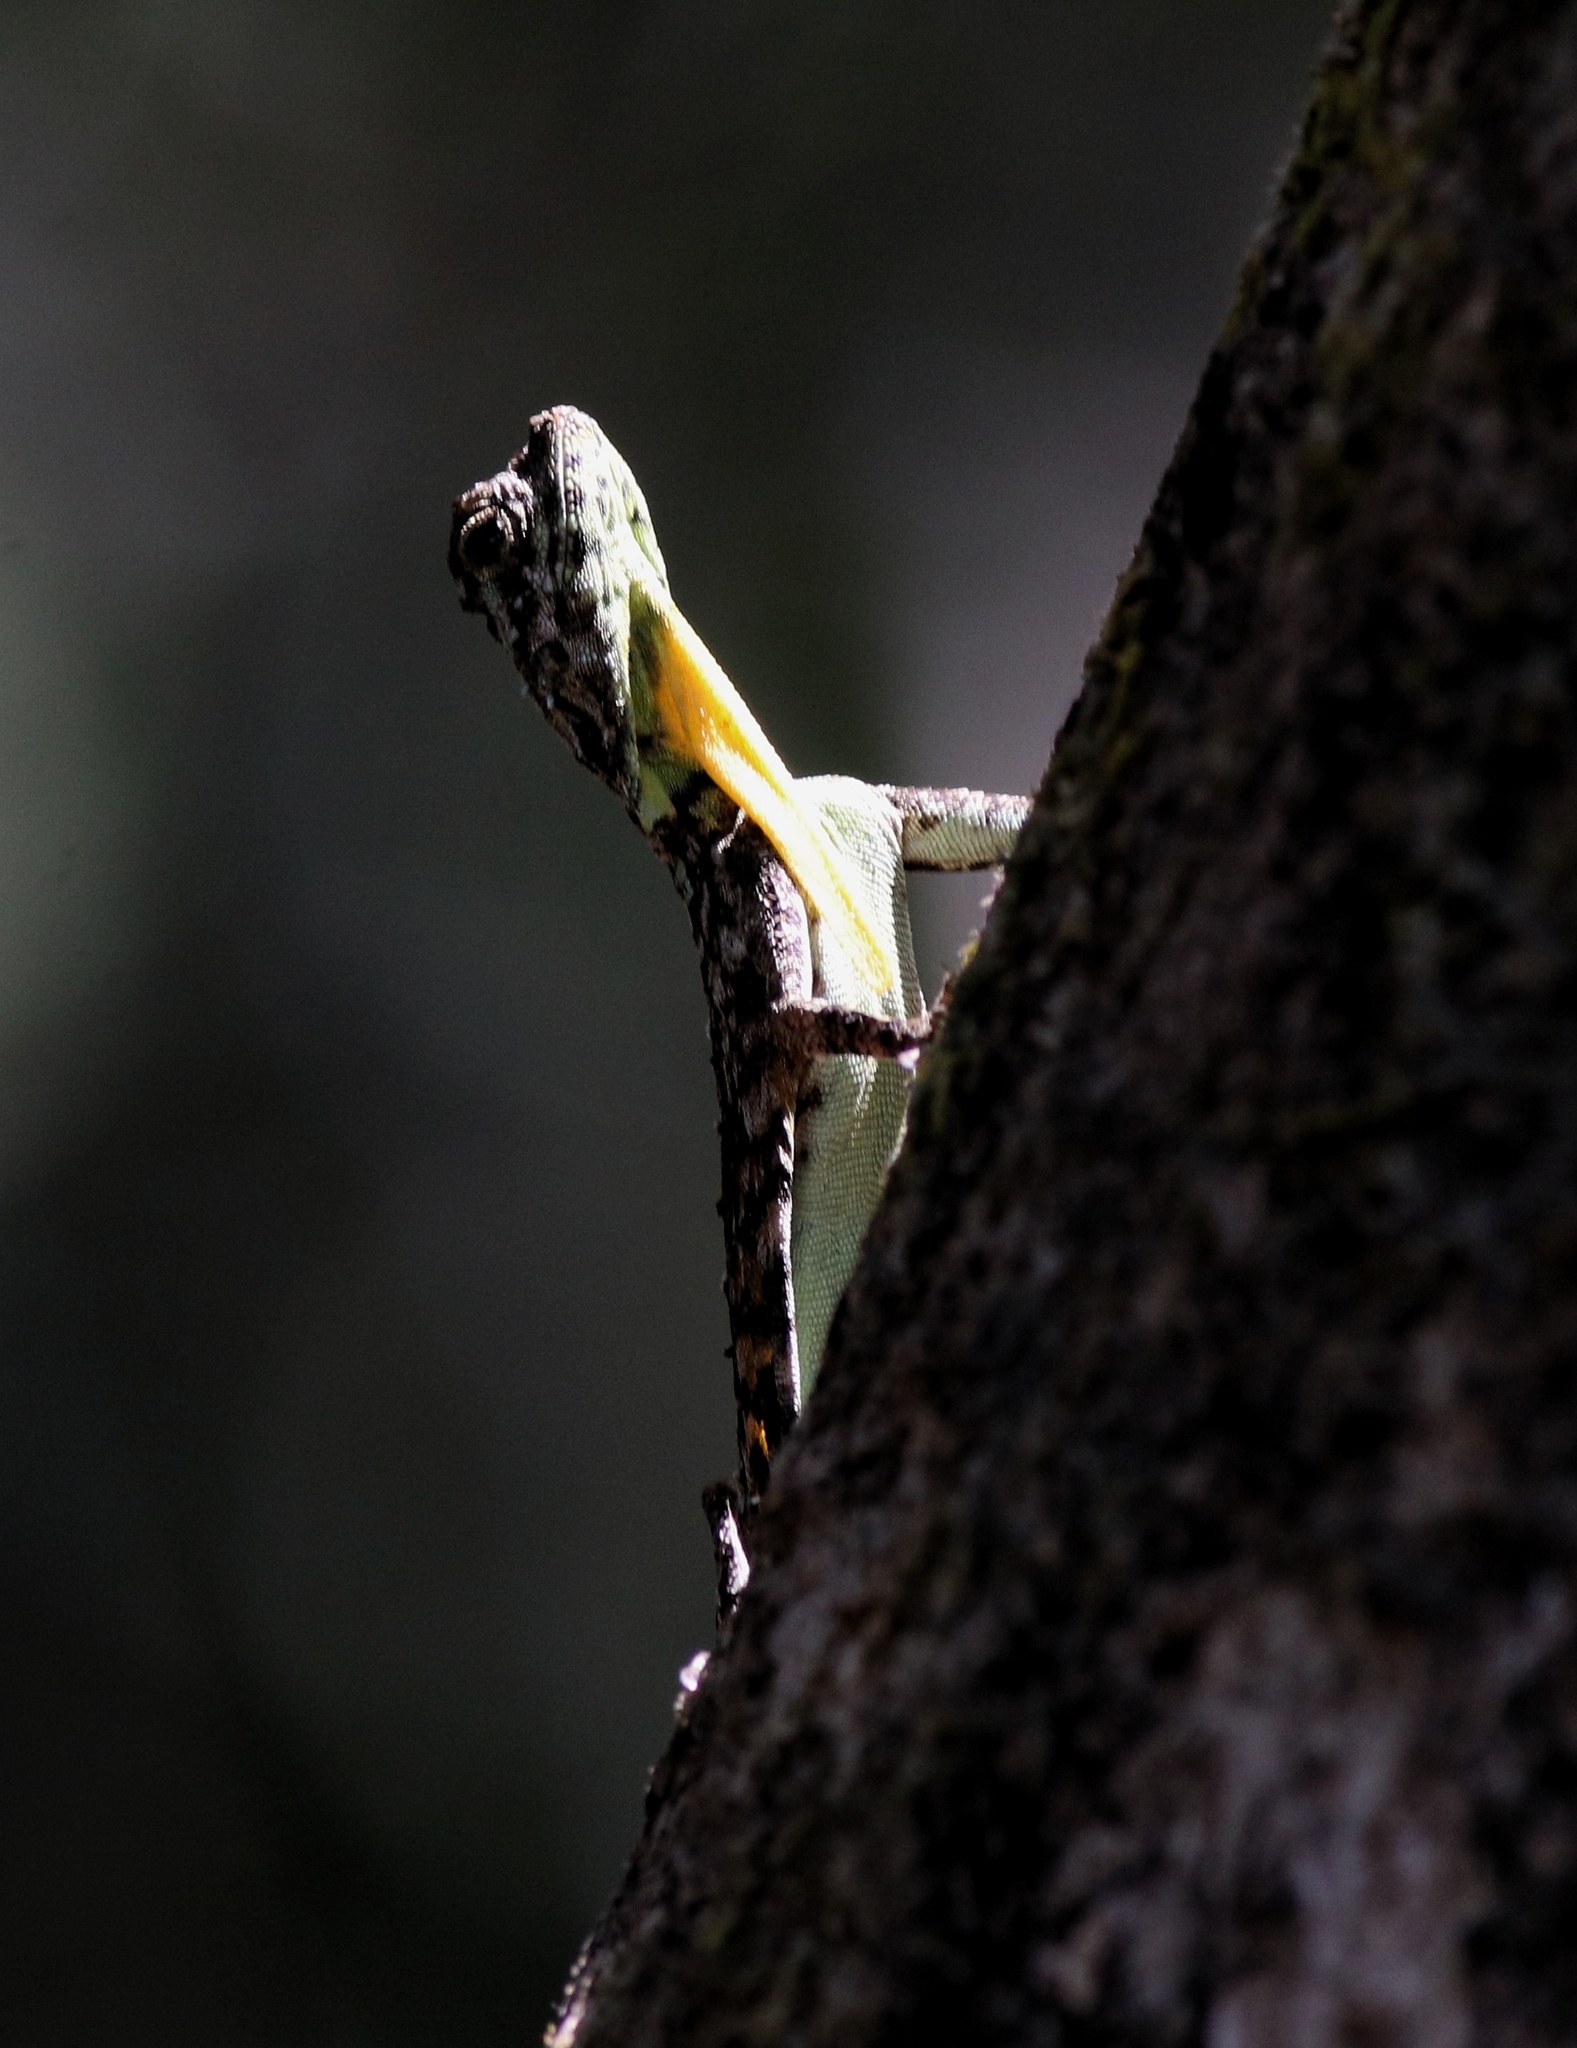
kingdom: Animalia
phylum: Chordata
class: Squamata
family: Agamidae
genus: Draco
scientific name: Draco dussumieri
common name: Southern flying lizard
